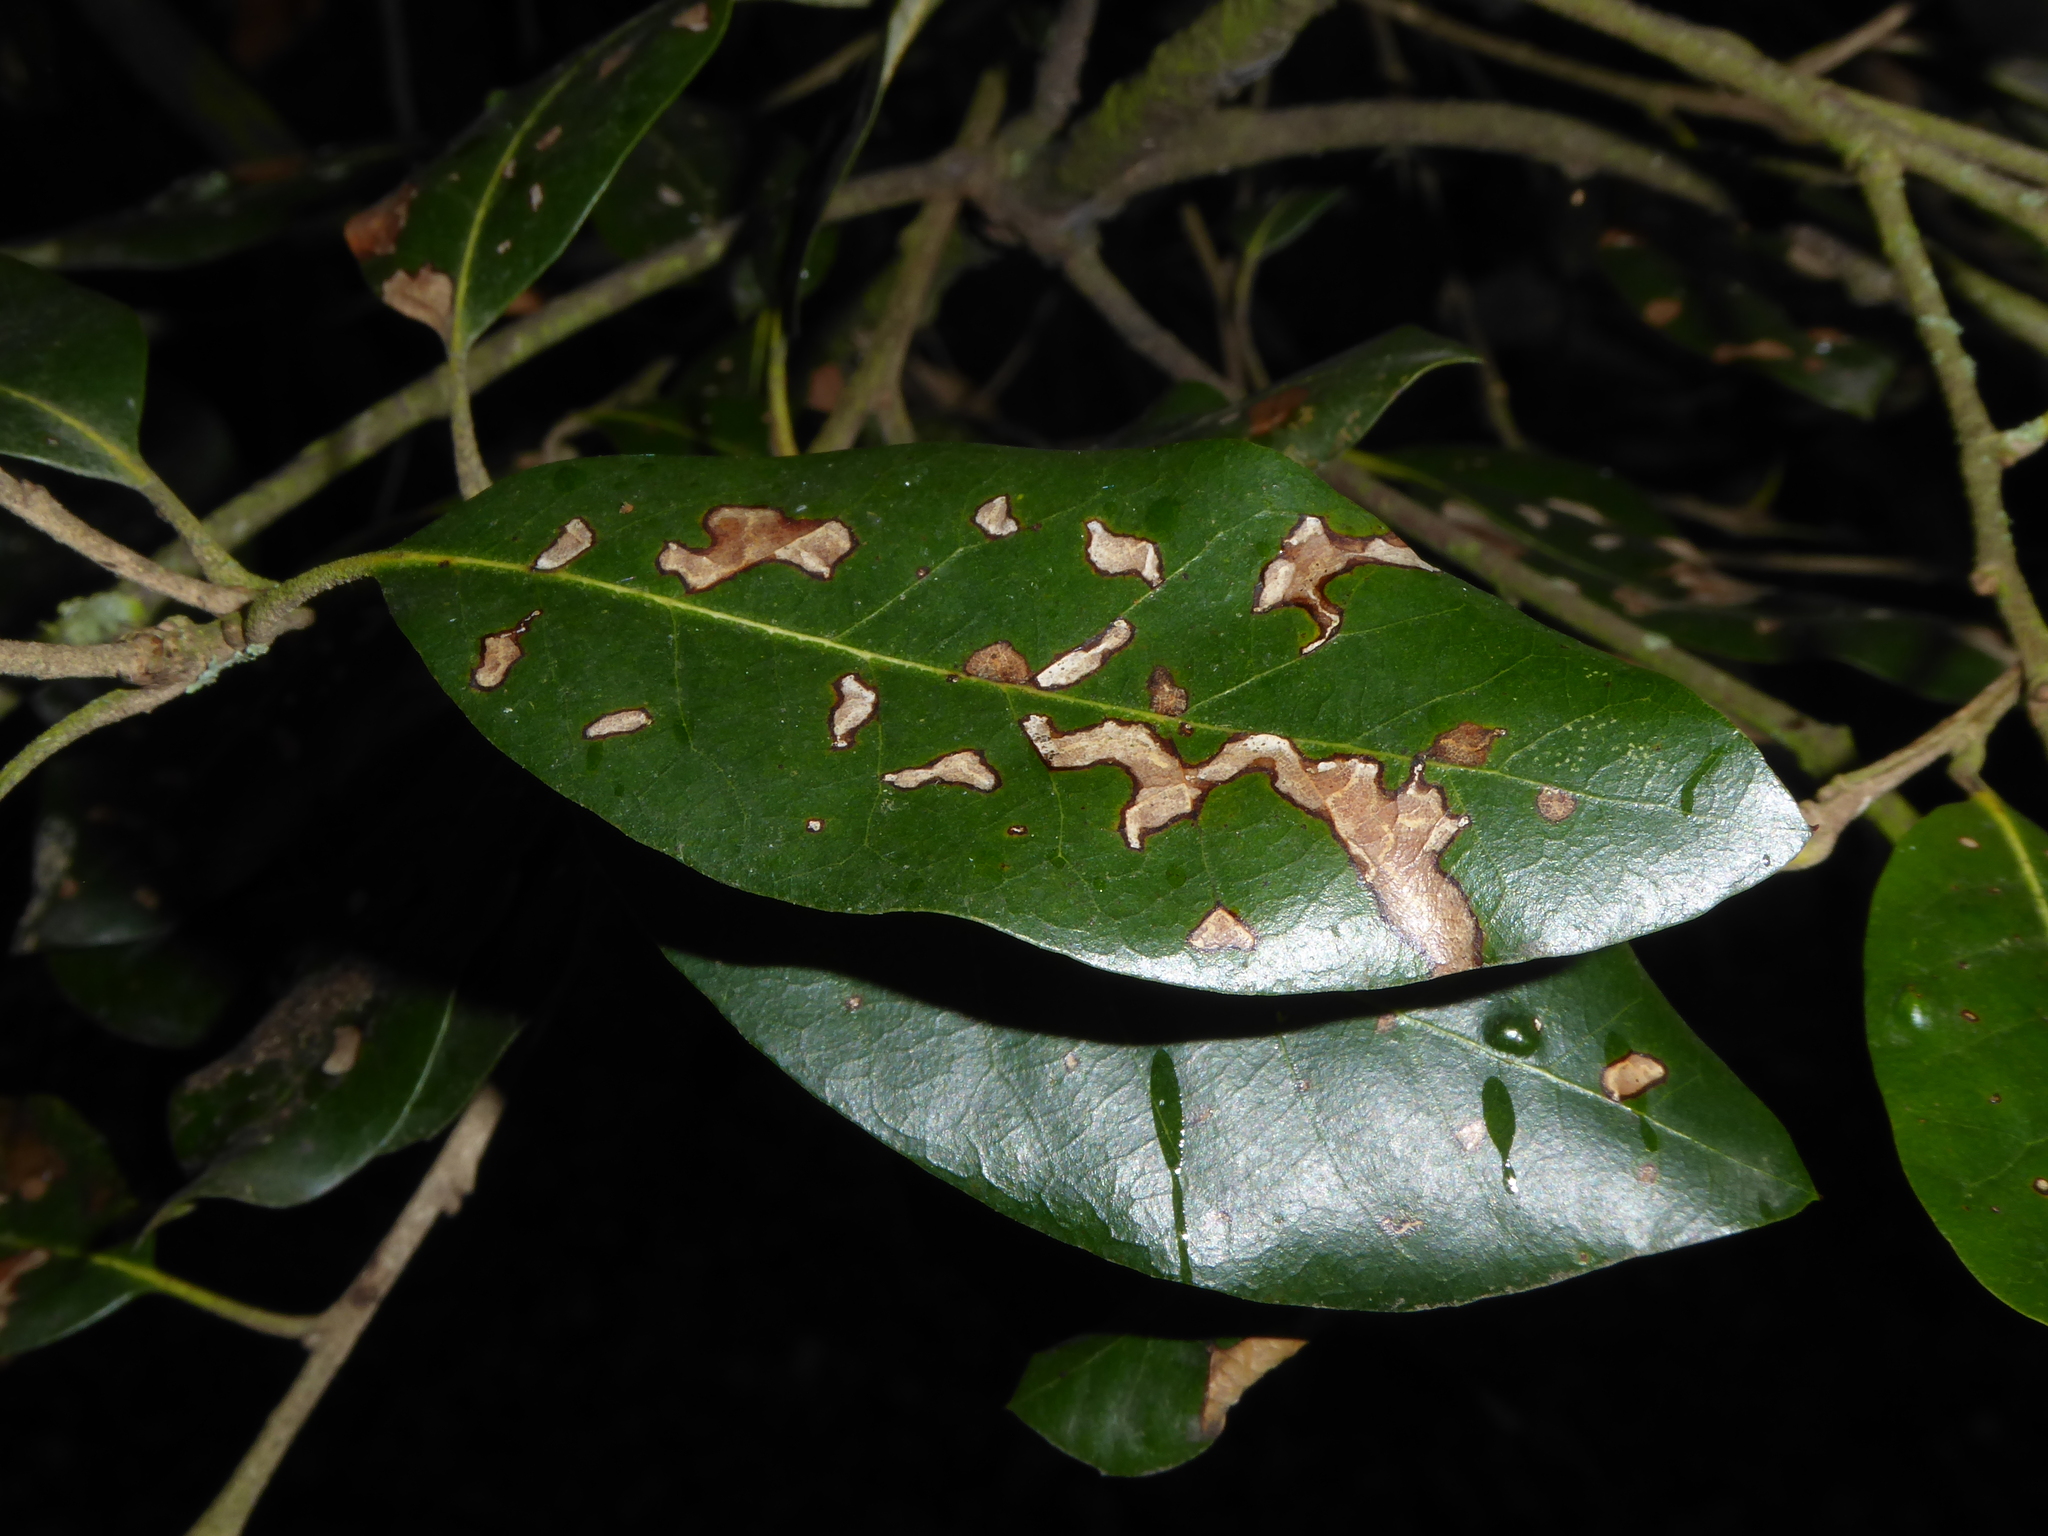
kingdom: Animalia
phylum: Arthropoda
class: Insecta
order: Lepidoptera
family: Nepticulidae
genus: Ectoedemia
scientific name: Ectoedemia heringella
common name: New holm-oak pigmy
